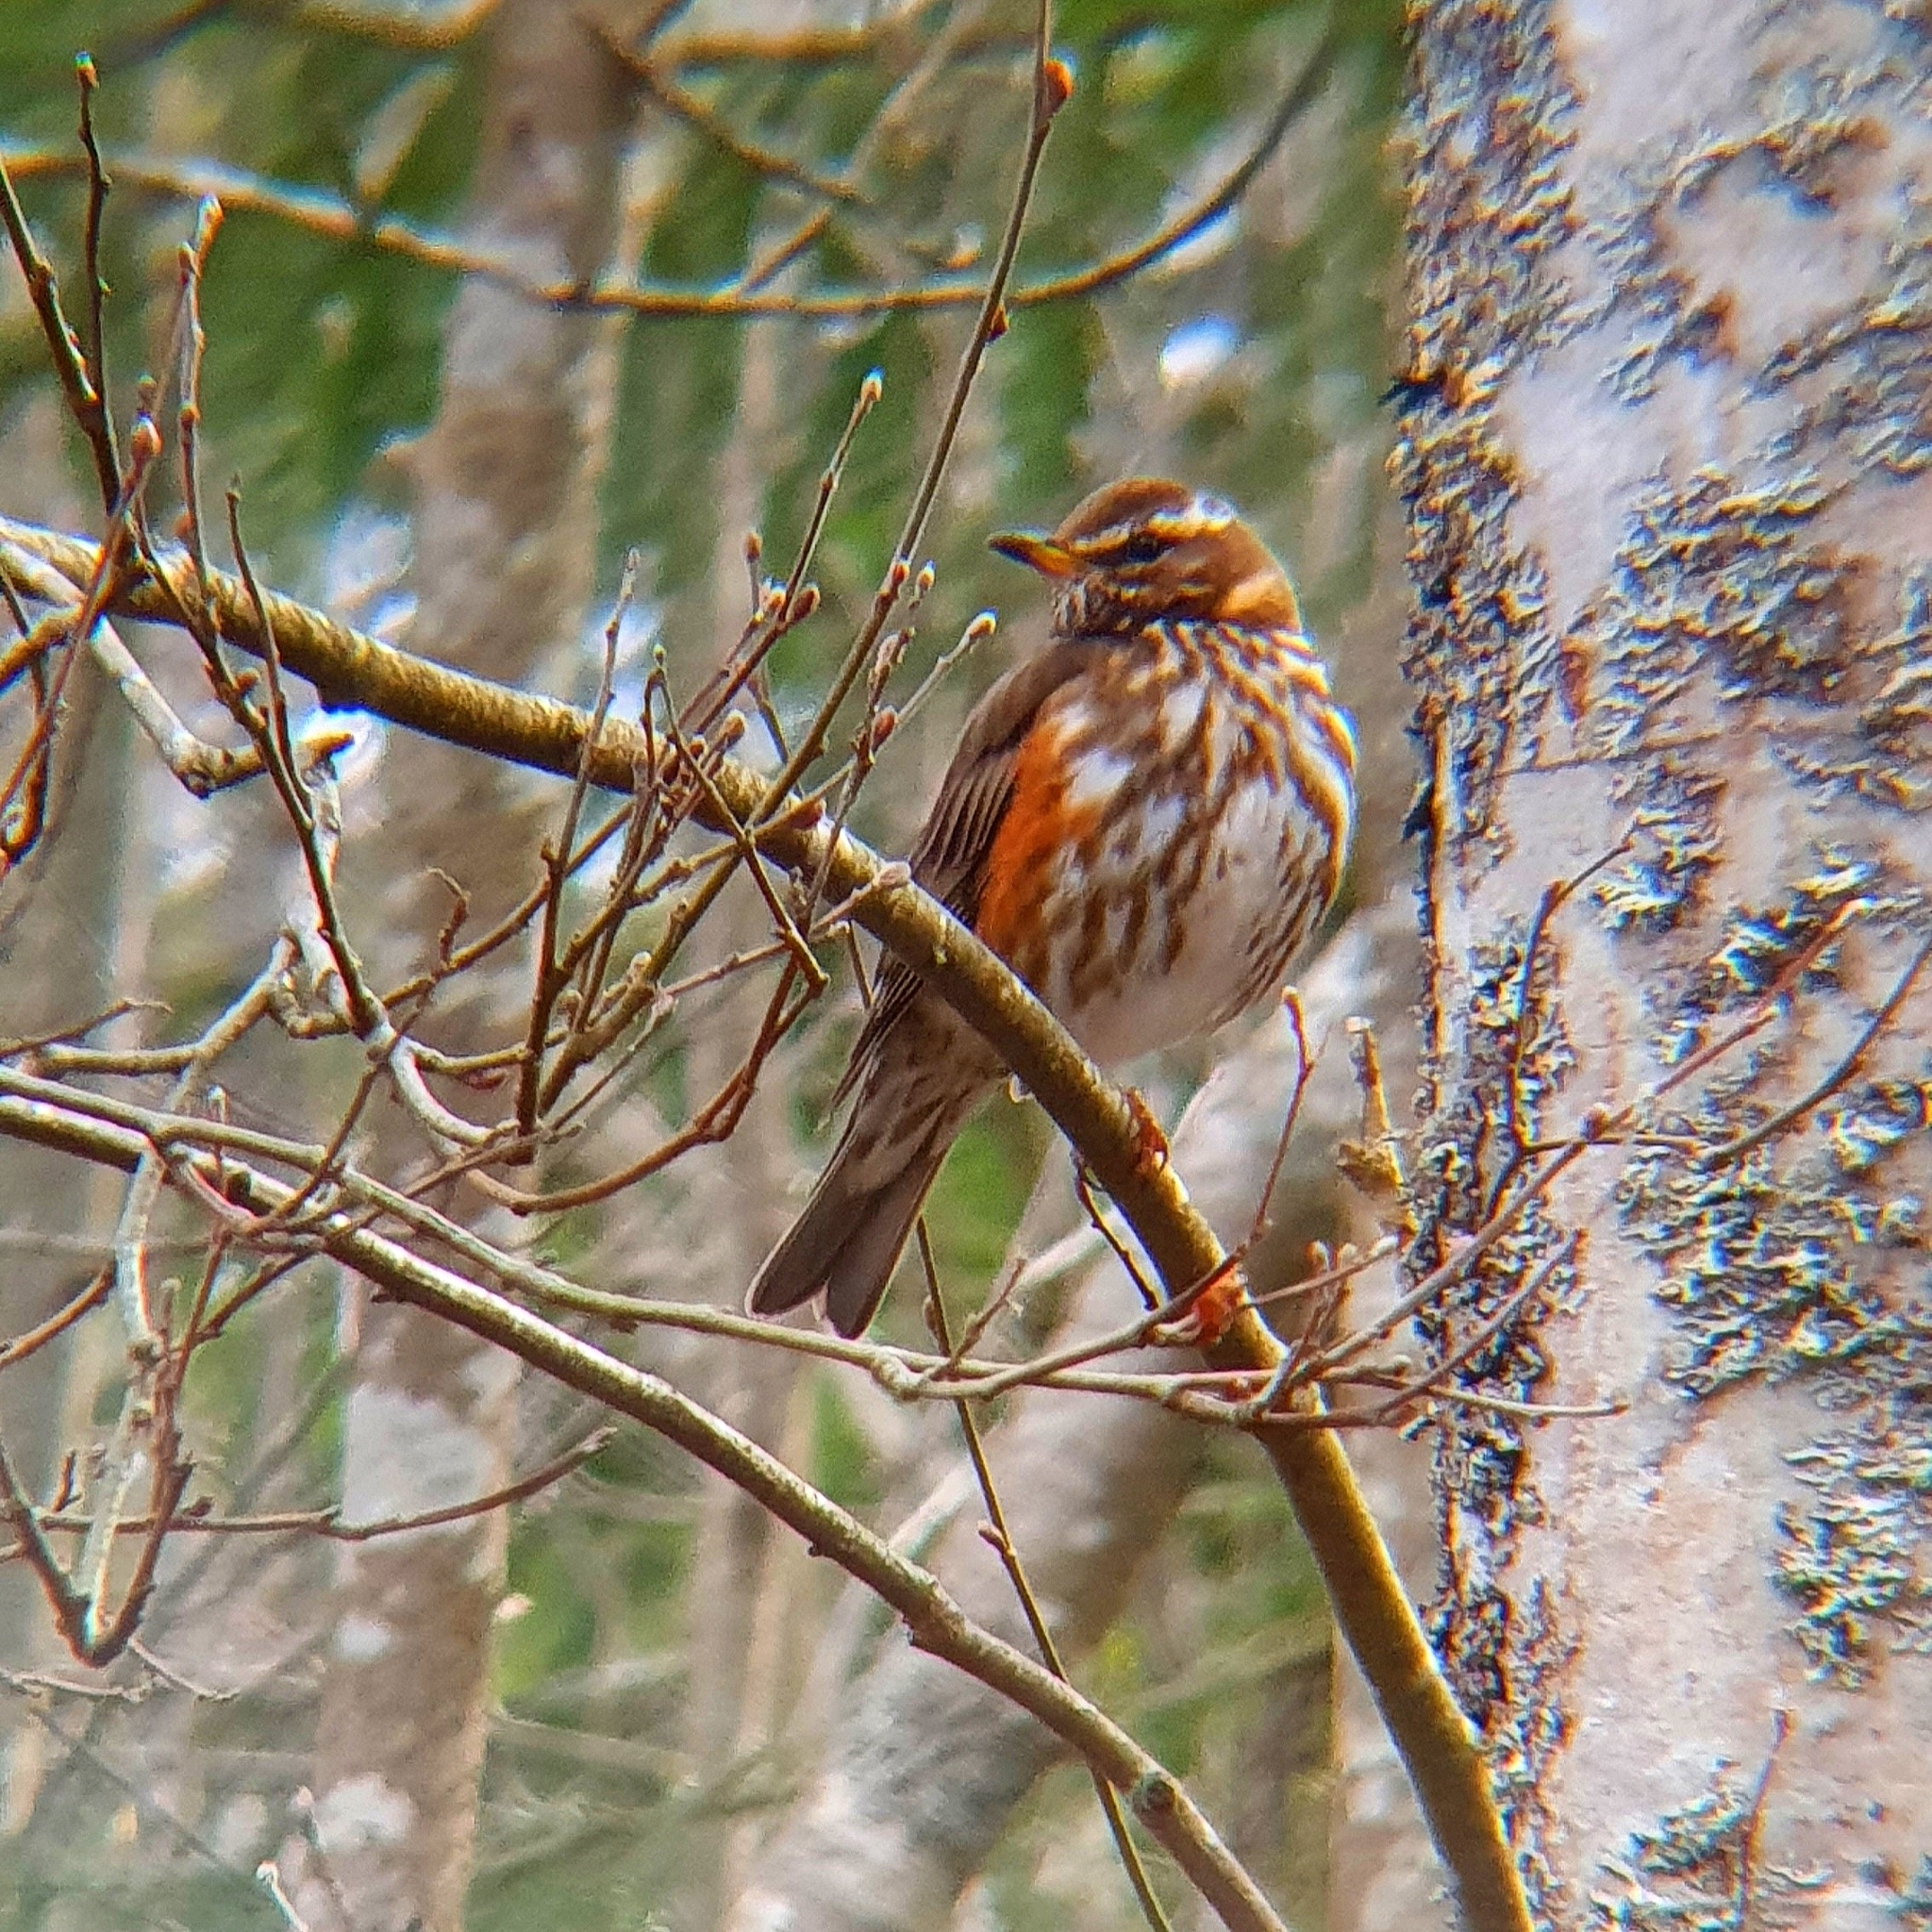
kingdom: Animalia
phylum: Chordata
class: Aves
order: Passeriformes
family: Turdidae
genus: Turdus
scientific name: Turdus iliacus
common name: Redwing
